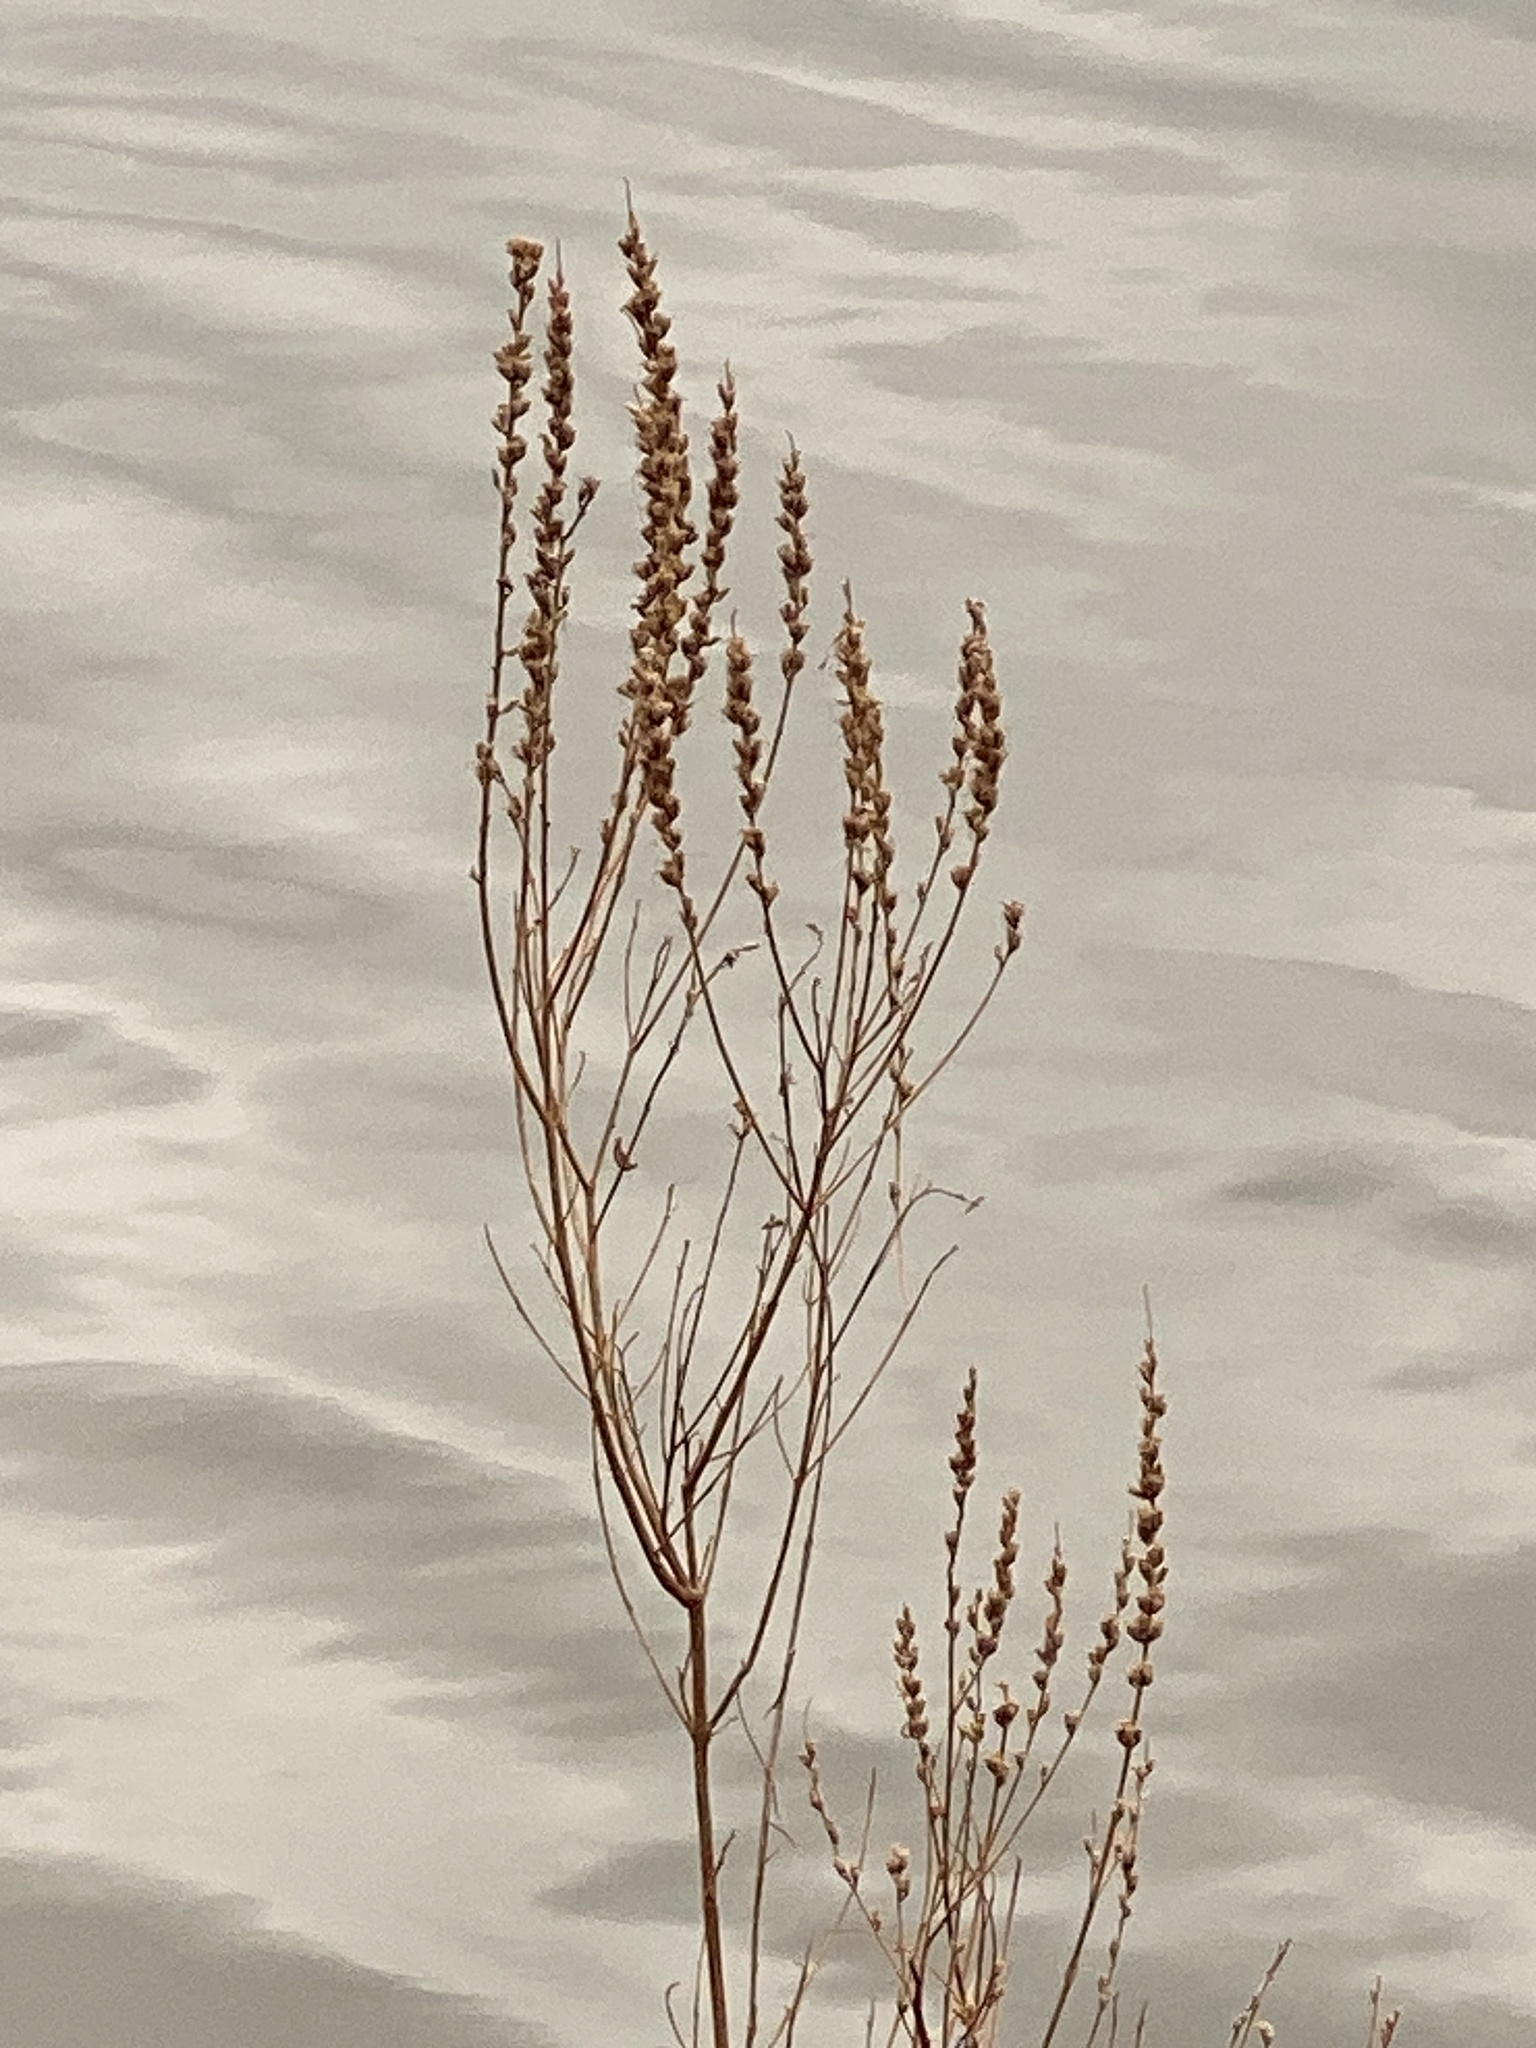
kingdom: Plantae
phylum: Tracheophyta
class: Magnoliopsida
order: Myrtales
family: Lythraceae
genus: Lythrum
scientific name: Lythrum salicaria
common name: Purple loosestrife
